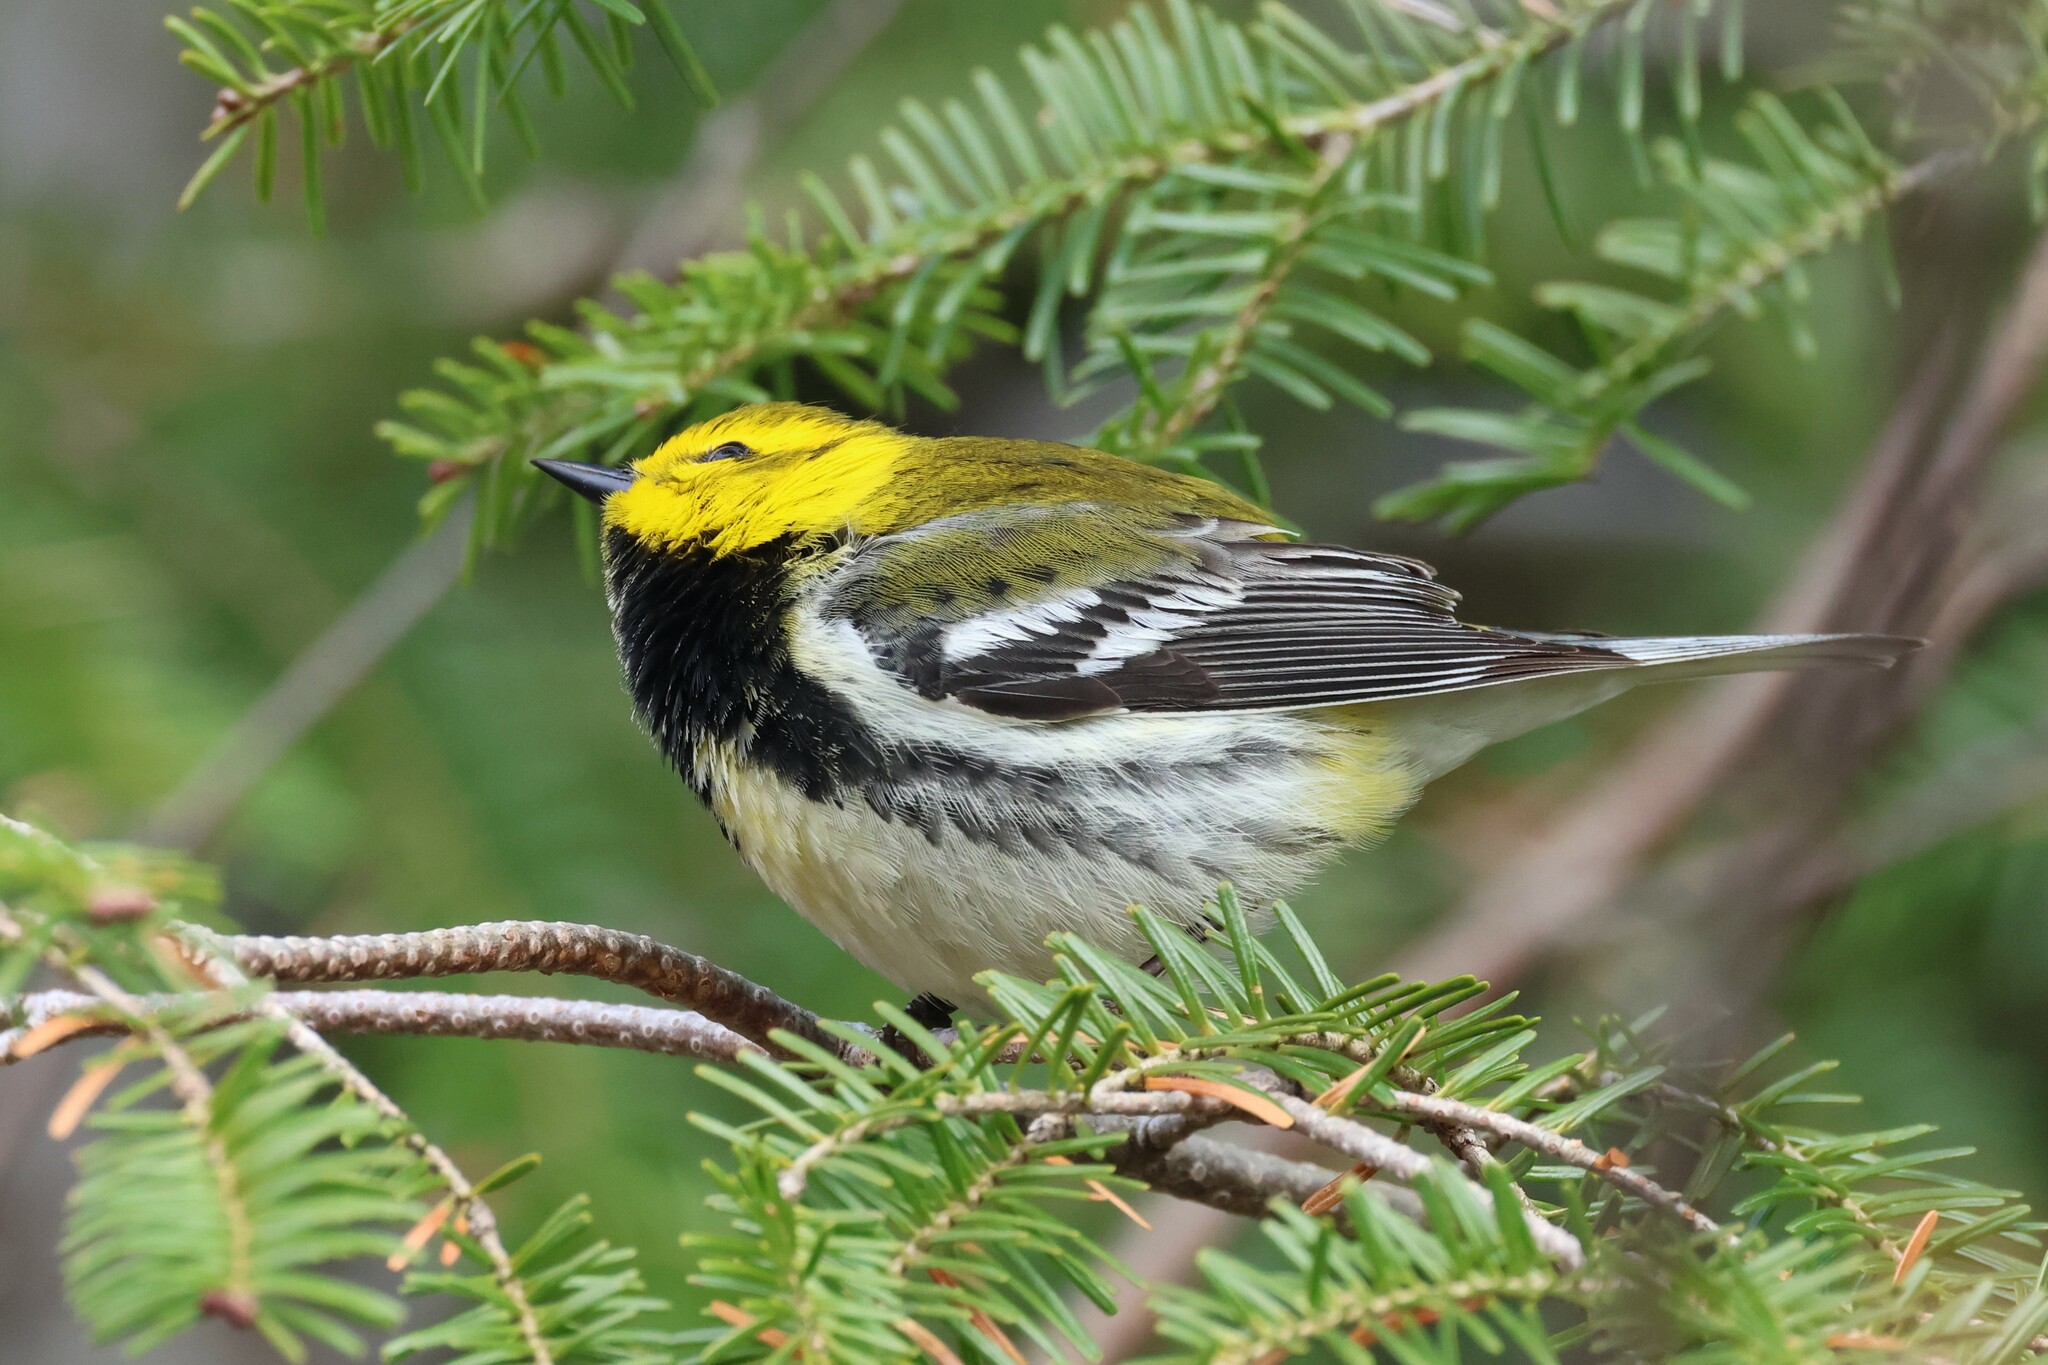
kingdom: Animalia
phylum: Chordata
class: Aves
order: Passeriformes
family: Parulidae
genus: Setophaga
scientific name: Setophaga virens
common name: Black-throated green warbler
